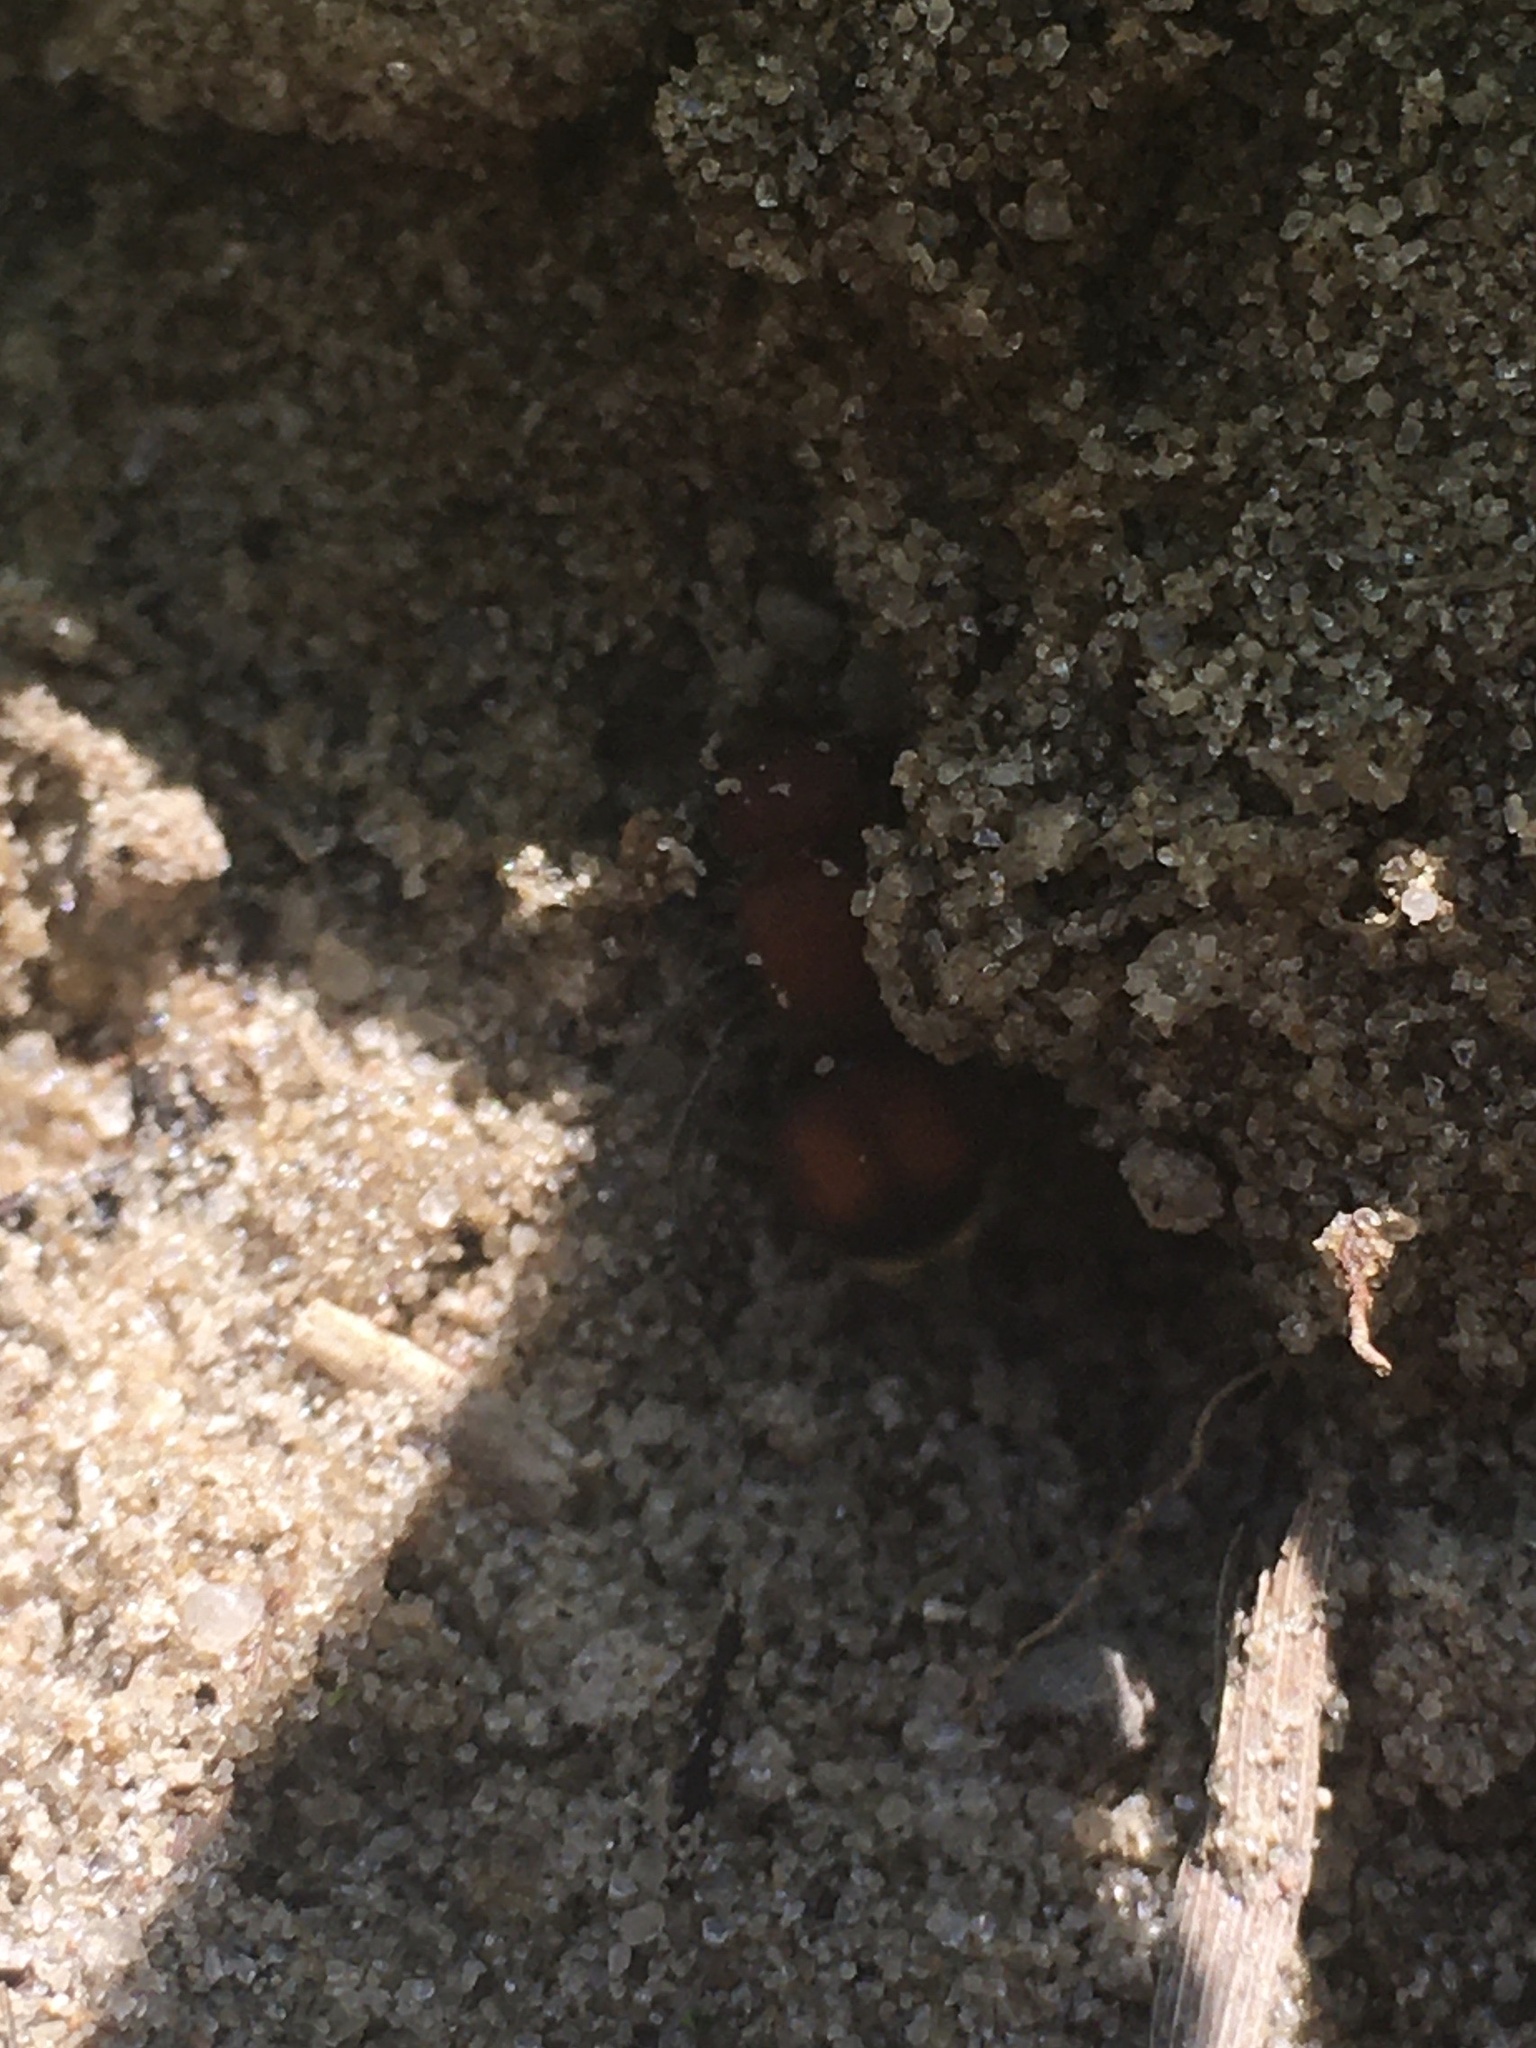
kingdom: Animalia
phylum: Arthropoda
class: Insecta
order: Hymenoptera
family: Mutillidae
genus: Pseudomethoca
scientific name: Pseudomethoca
